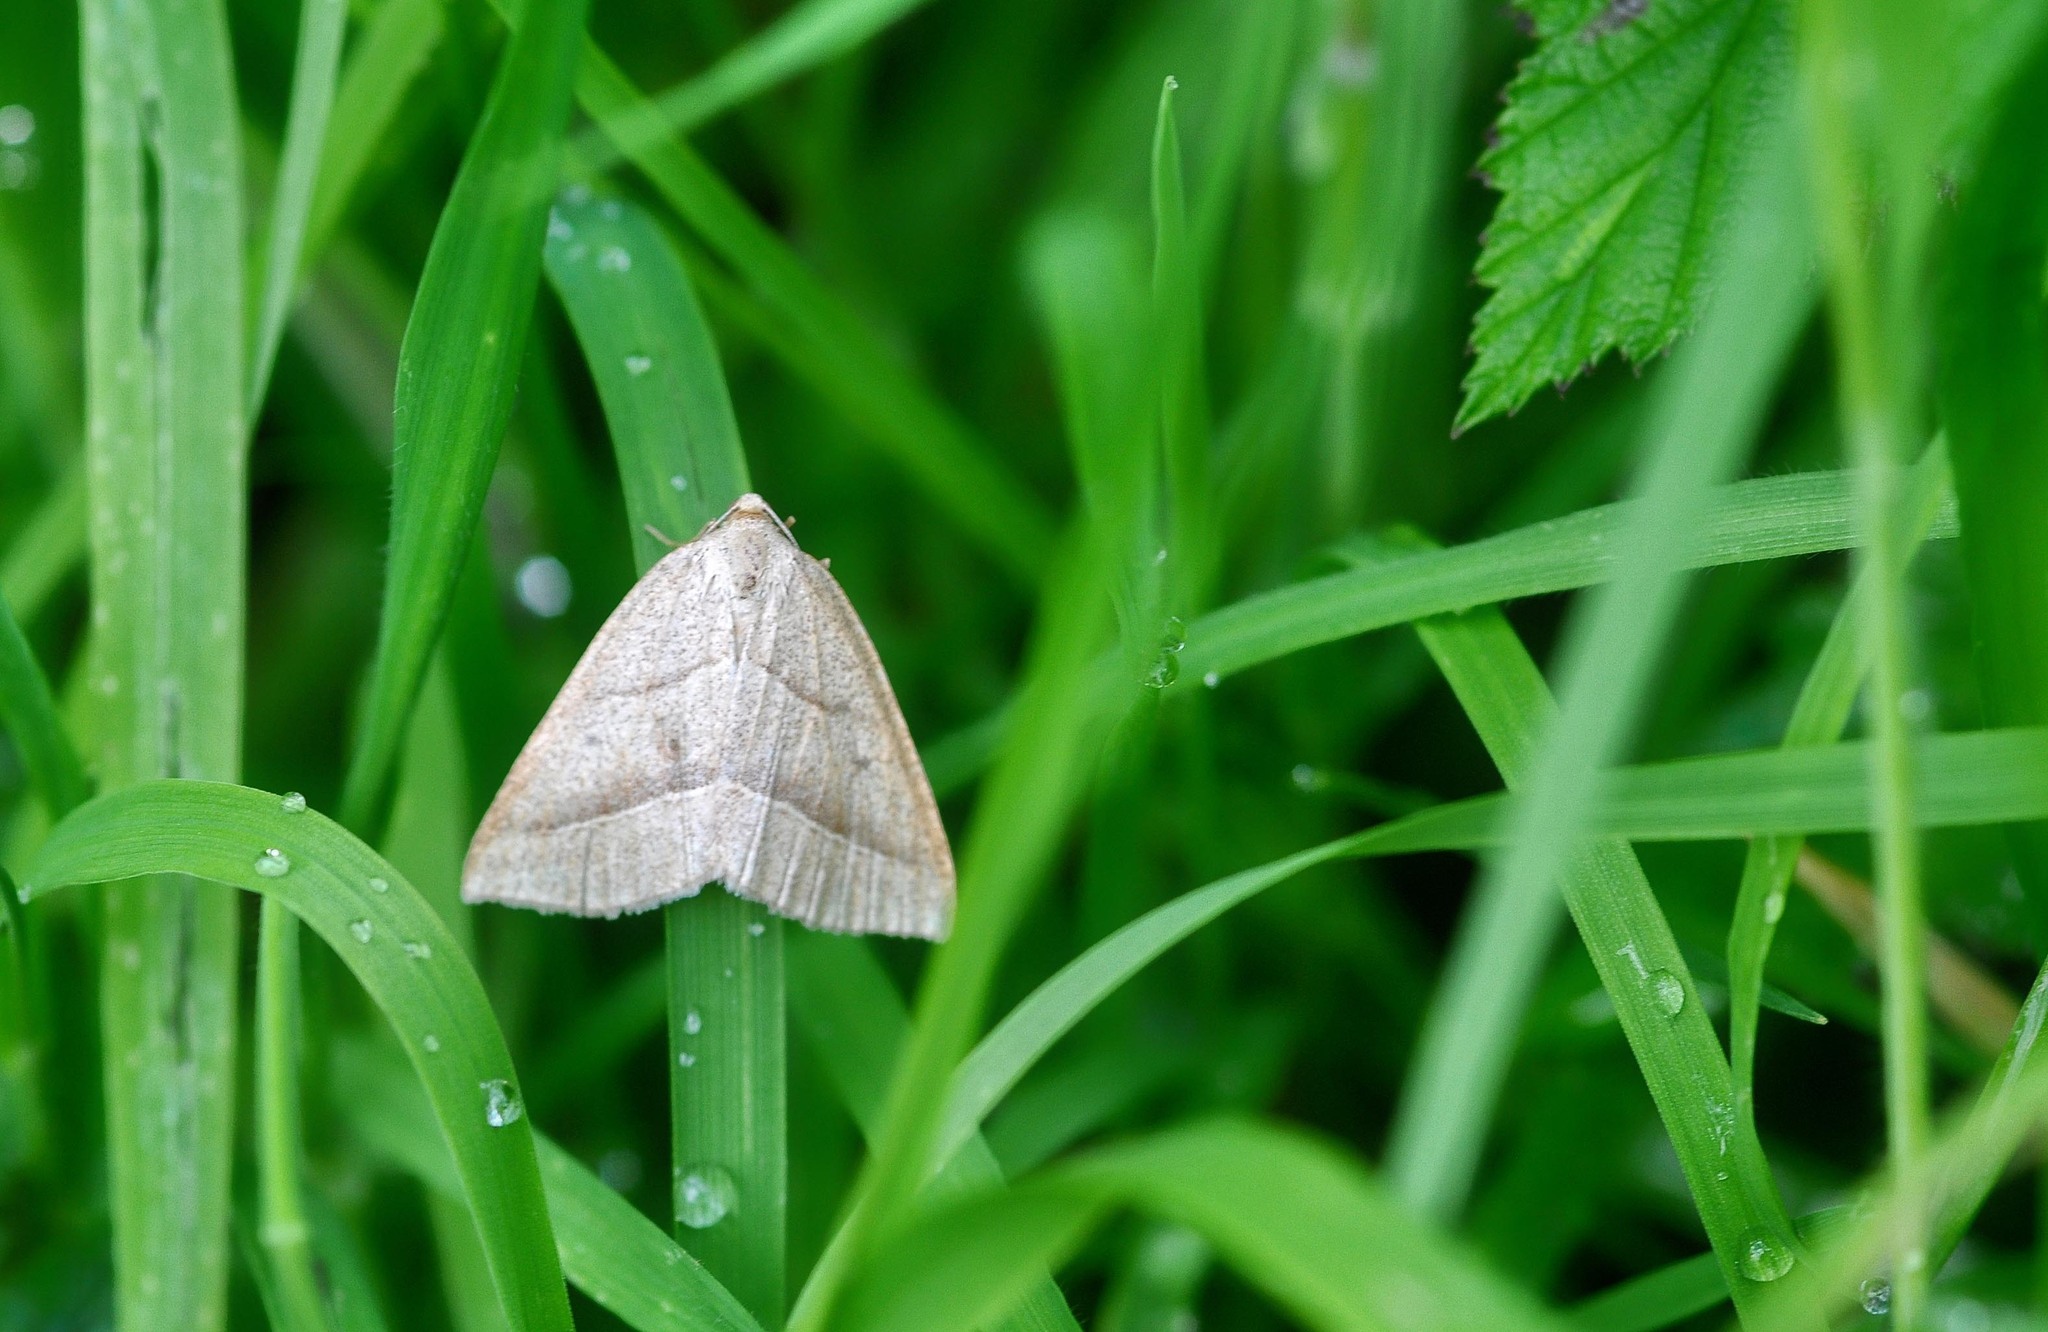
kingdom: Animalia
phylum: Arthropoda
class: Insecta
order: Lepidoptera
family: Pterophoridae
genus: Pterophorus
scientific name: Pterophorus Petrophora chlorosata
